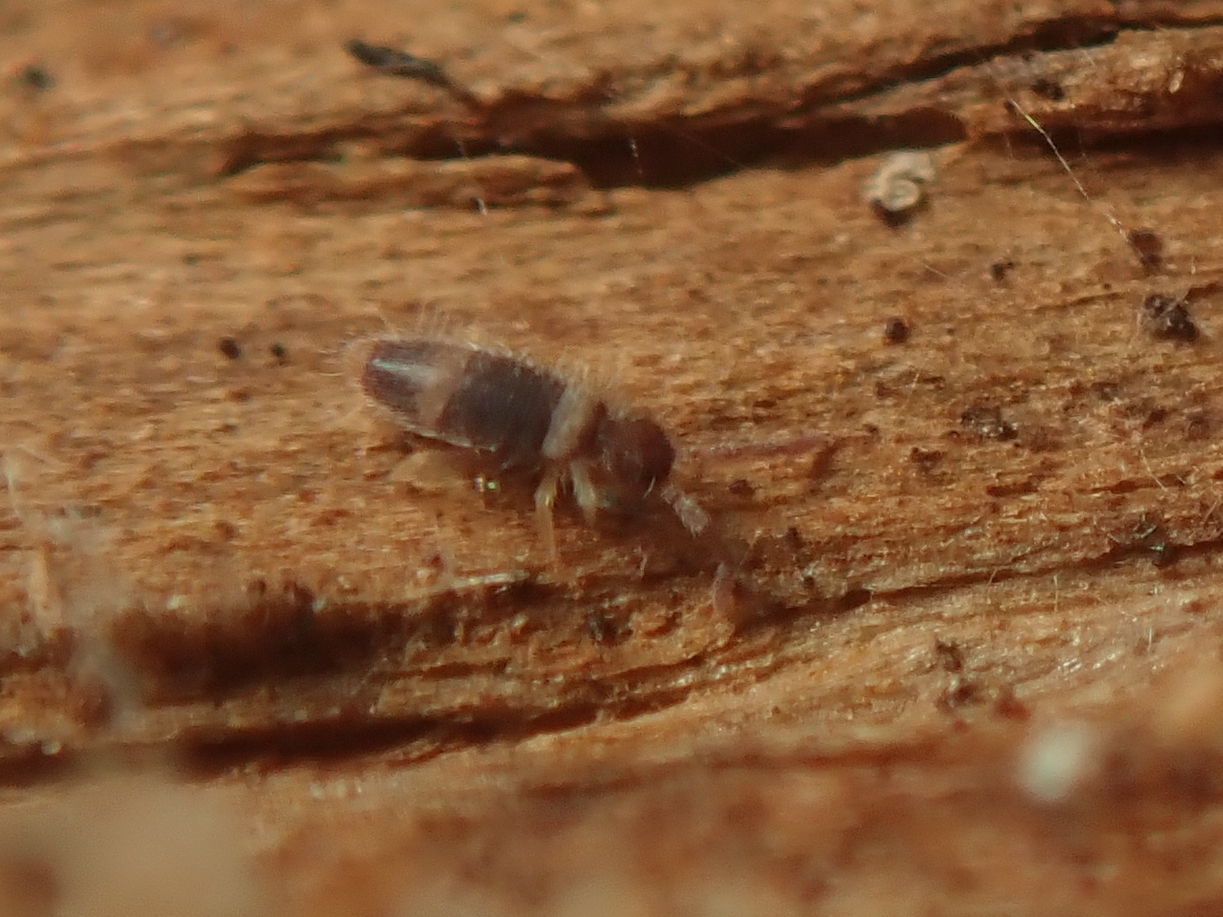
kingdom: Animalia
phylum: Arthropoda
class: Collembola
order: Entomobryomorpha
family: Entomobryidae
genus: Entomobrya
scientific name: Entomobrya albocincta
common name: Springtail
